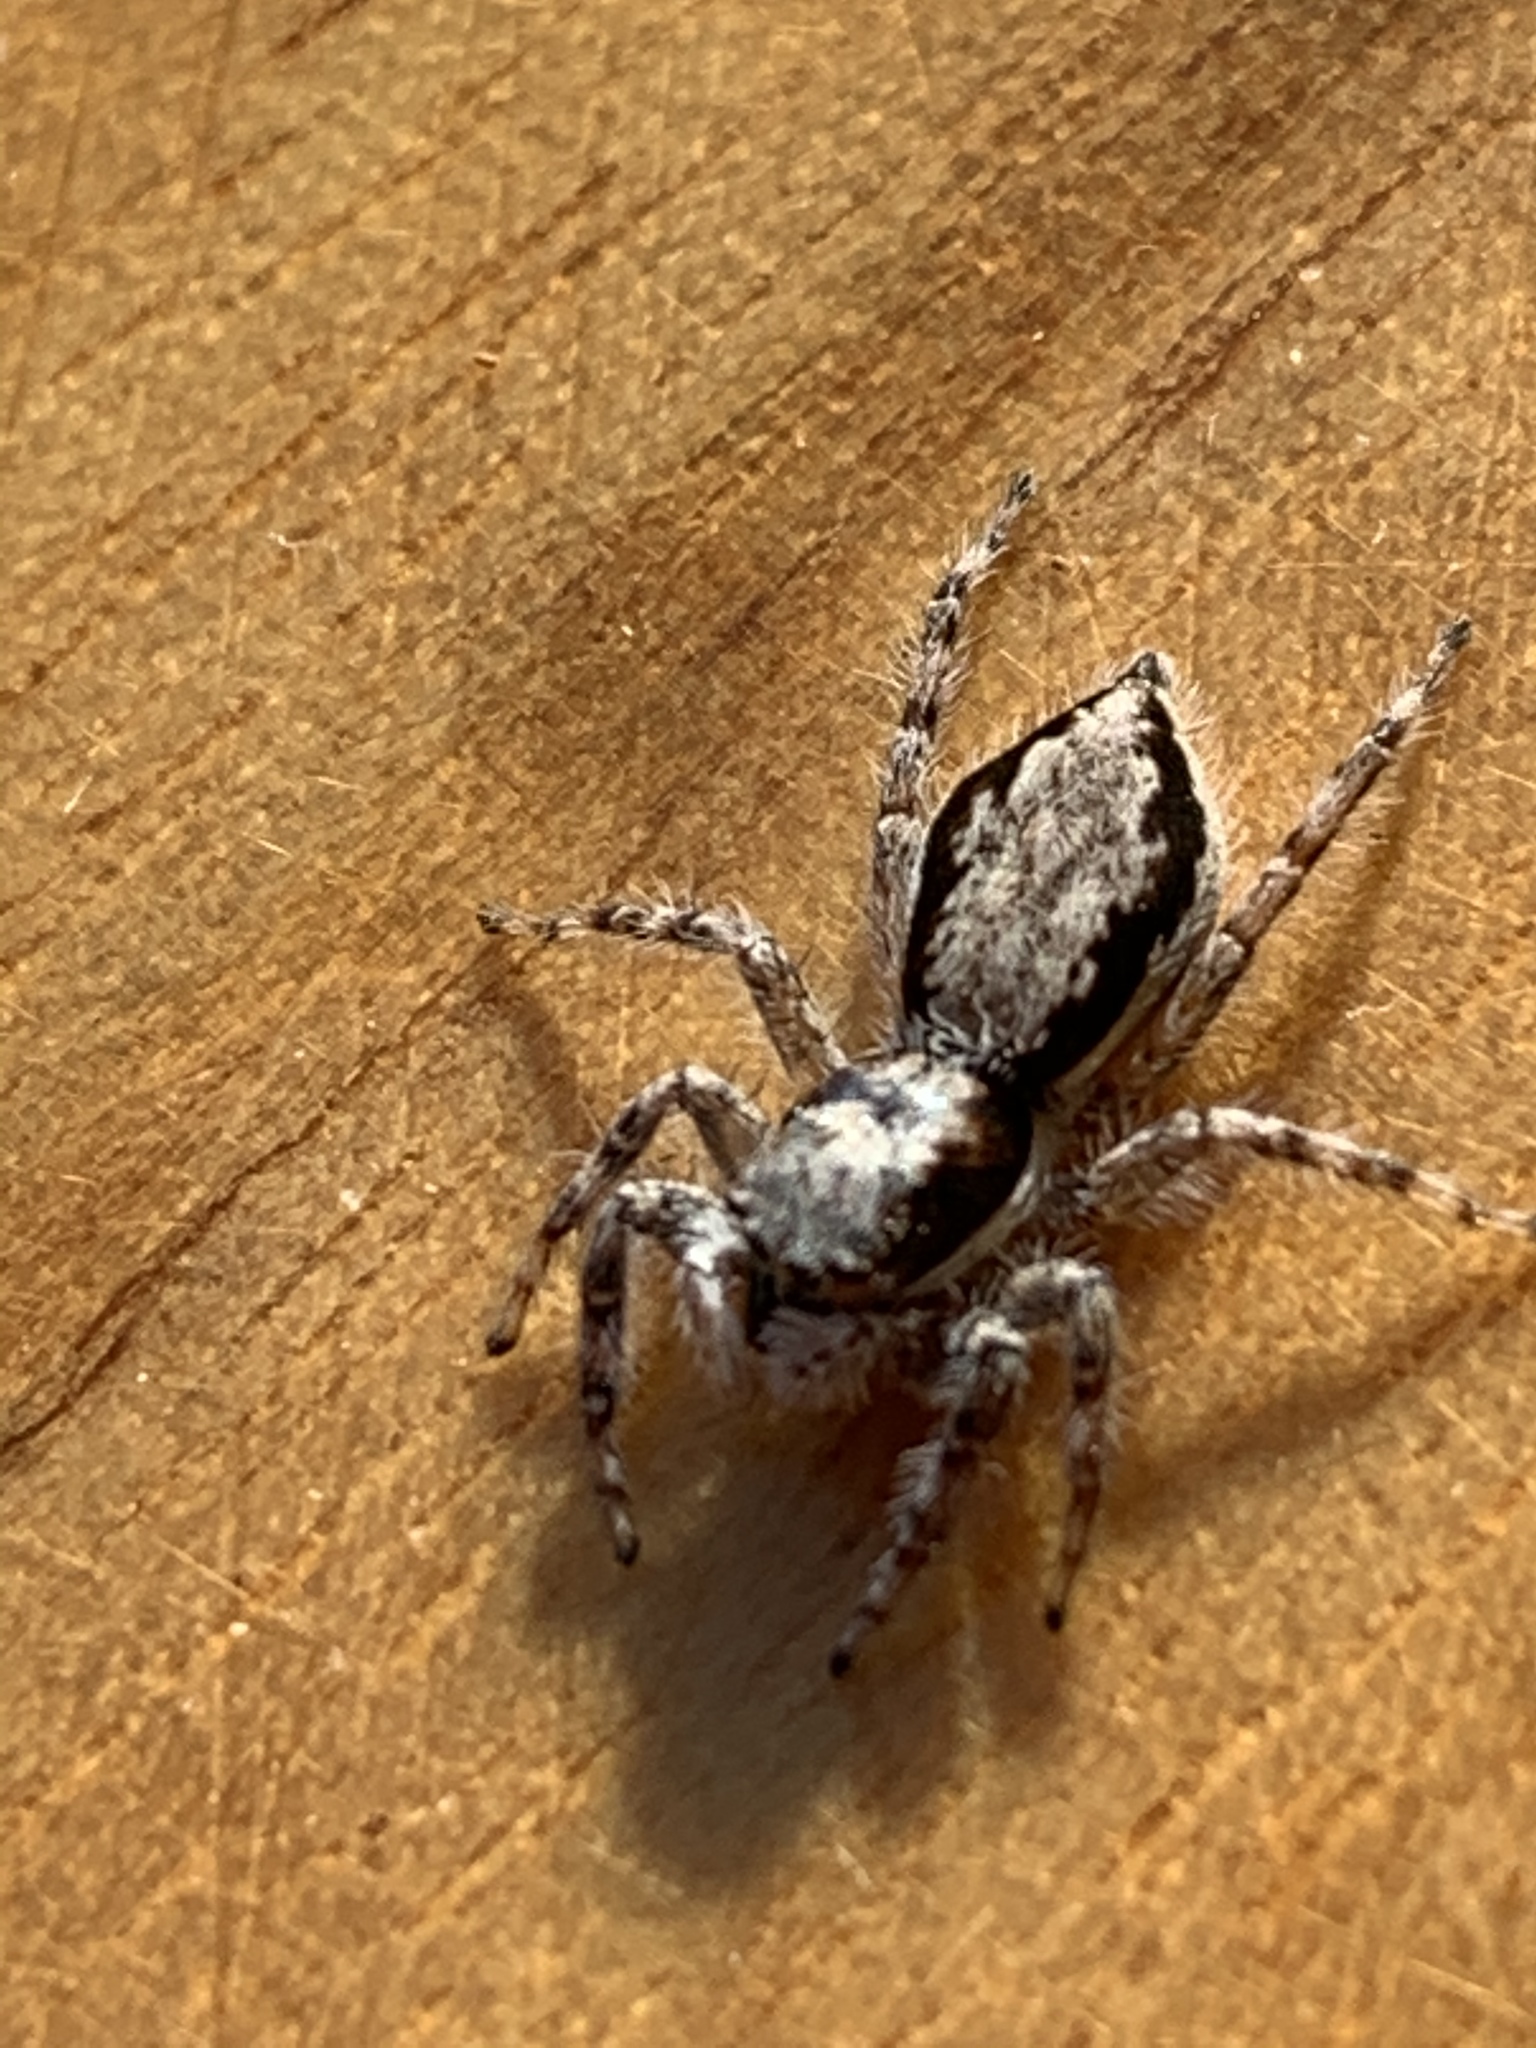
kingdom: Animalia
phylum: Arthropoda
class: Arachnida
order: Araneae
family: Salticidae
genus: Menemerus
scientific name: Menemerus bivittatus
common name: Gray wall jumper
